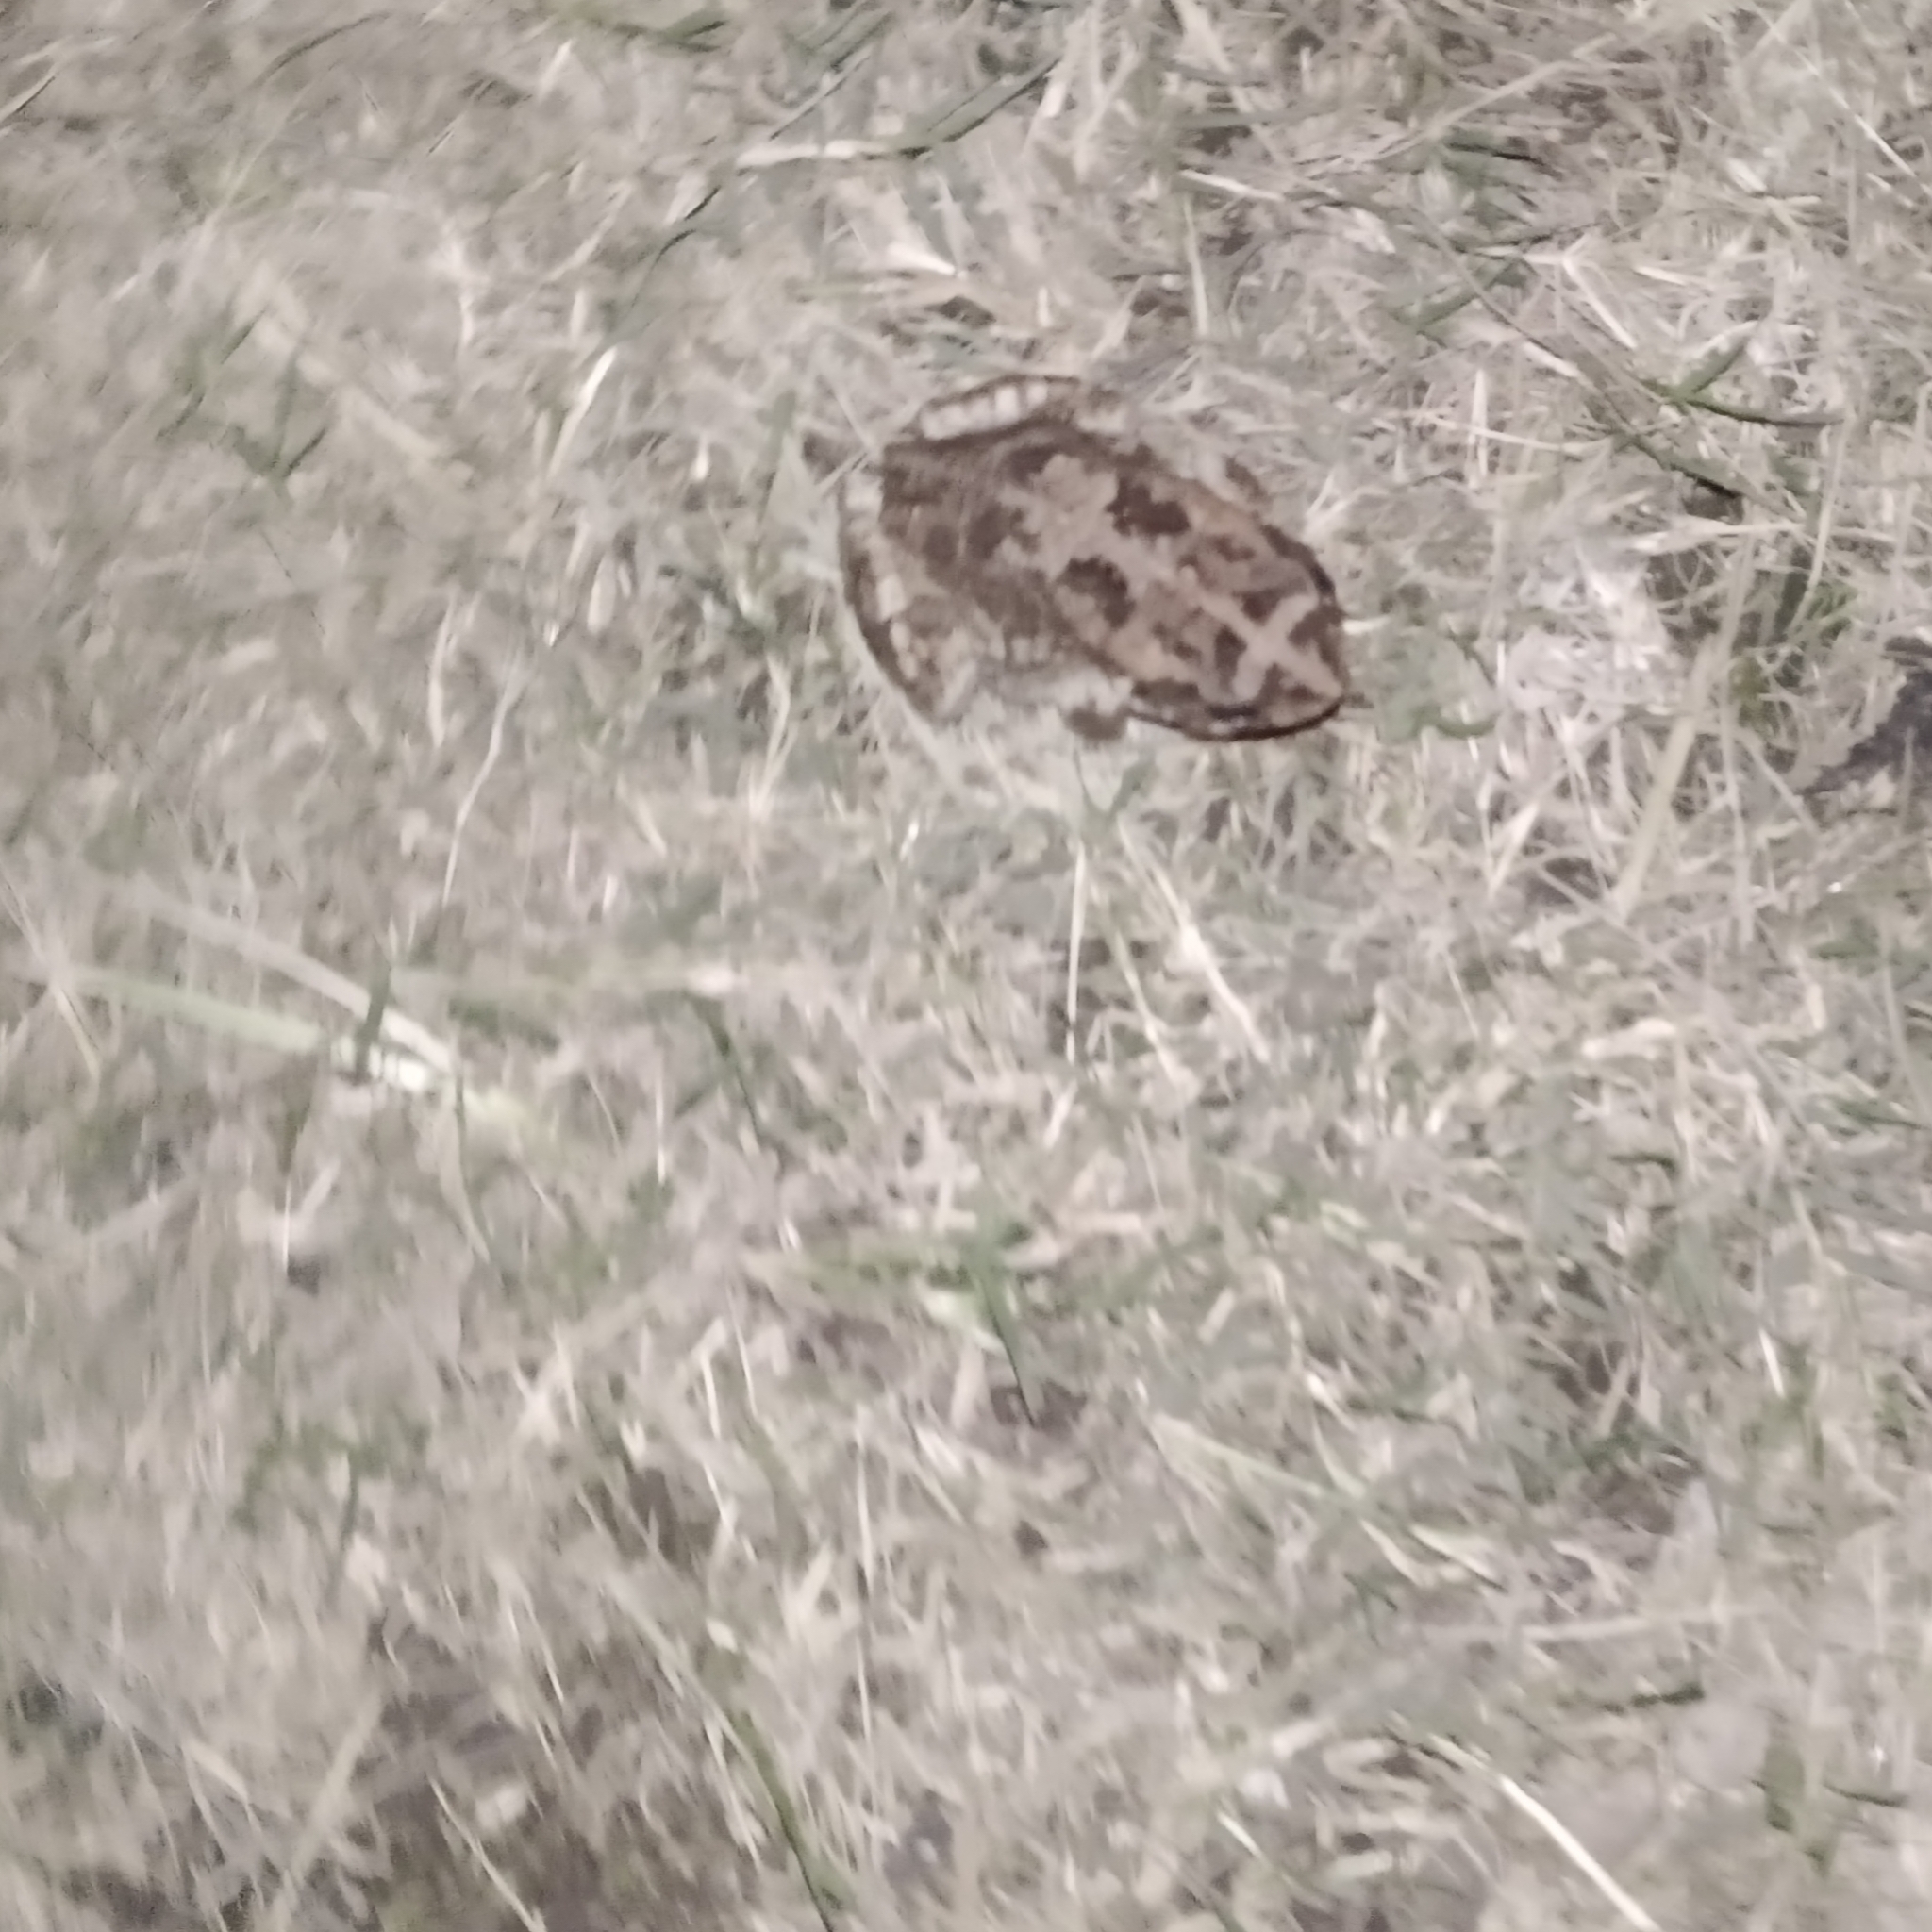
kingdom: Animalia
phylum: Chordata
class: Amphibia
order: Anura
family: Bufonidae
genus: Sclerophrys
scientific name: Sclerophrys gutturalis
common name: African common toad
